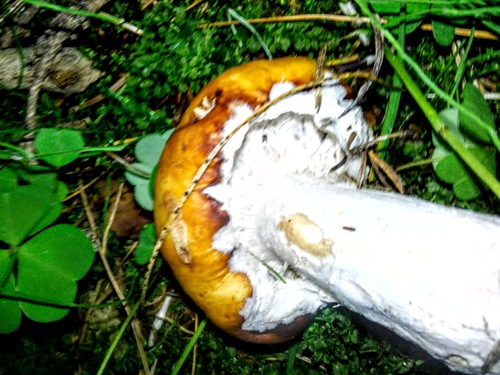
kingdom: Fungi
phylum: Basidiomycota
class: Agaricomycetes
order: Russulales
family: Russulaceae
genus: Russula
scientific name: Russula foetens
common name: Foetid russula
